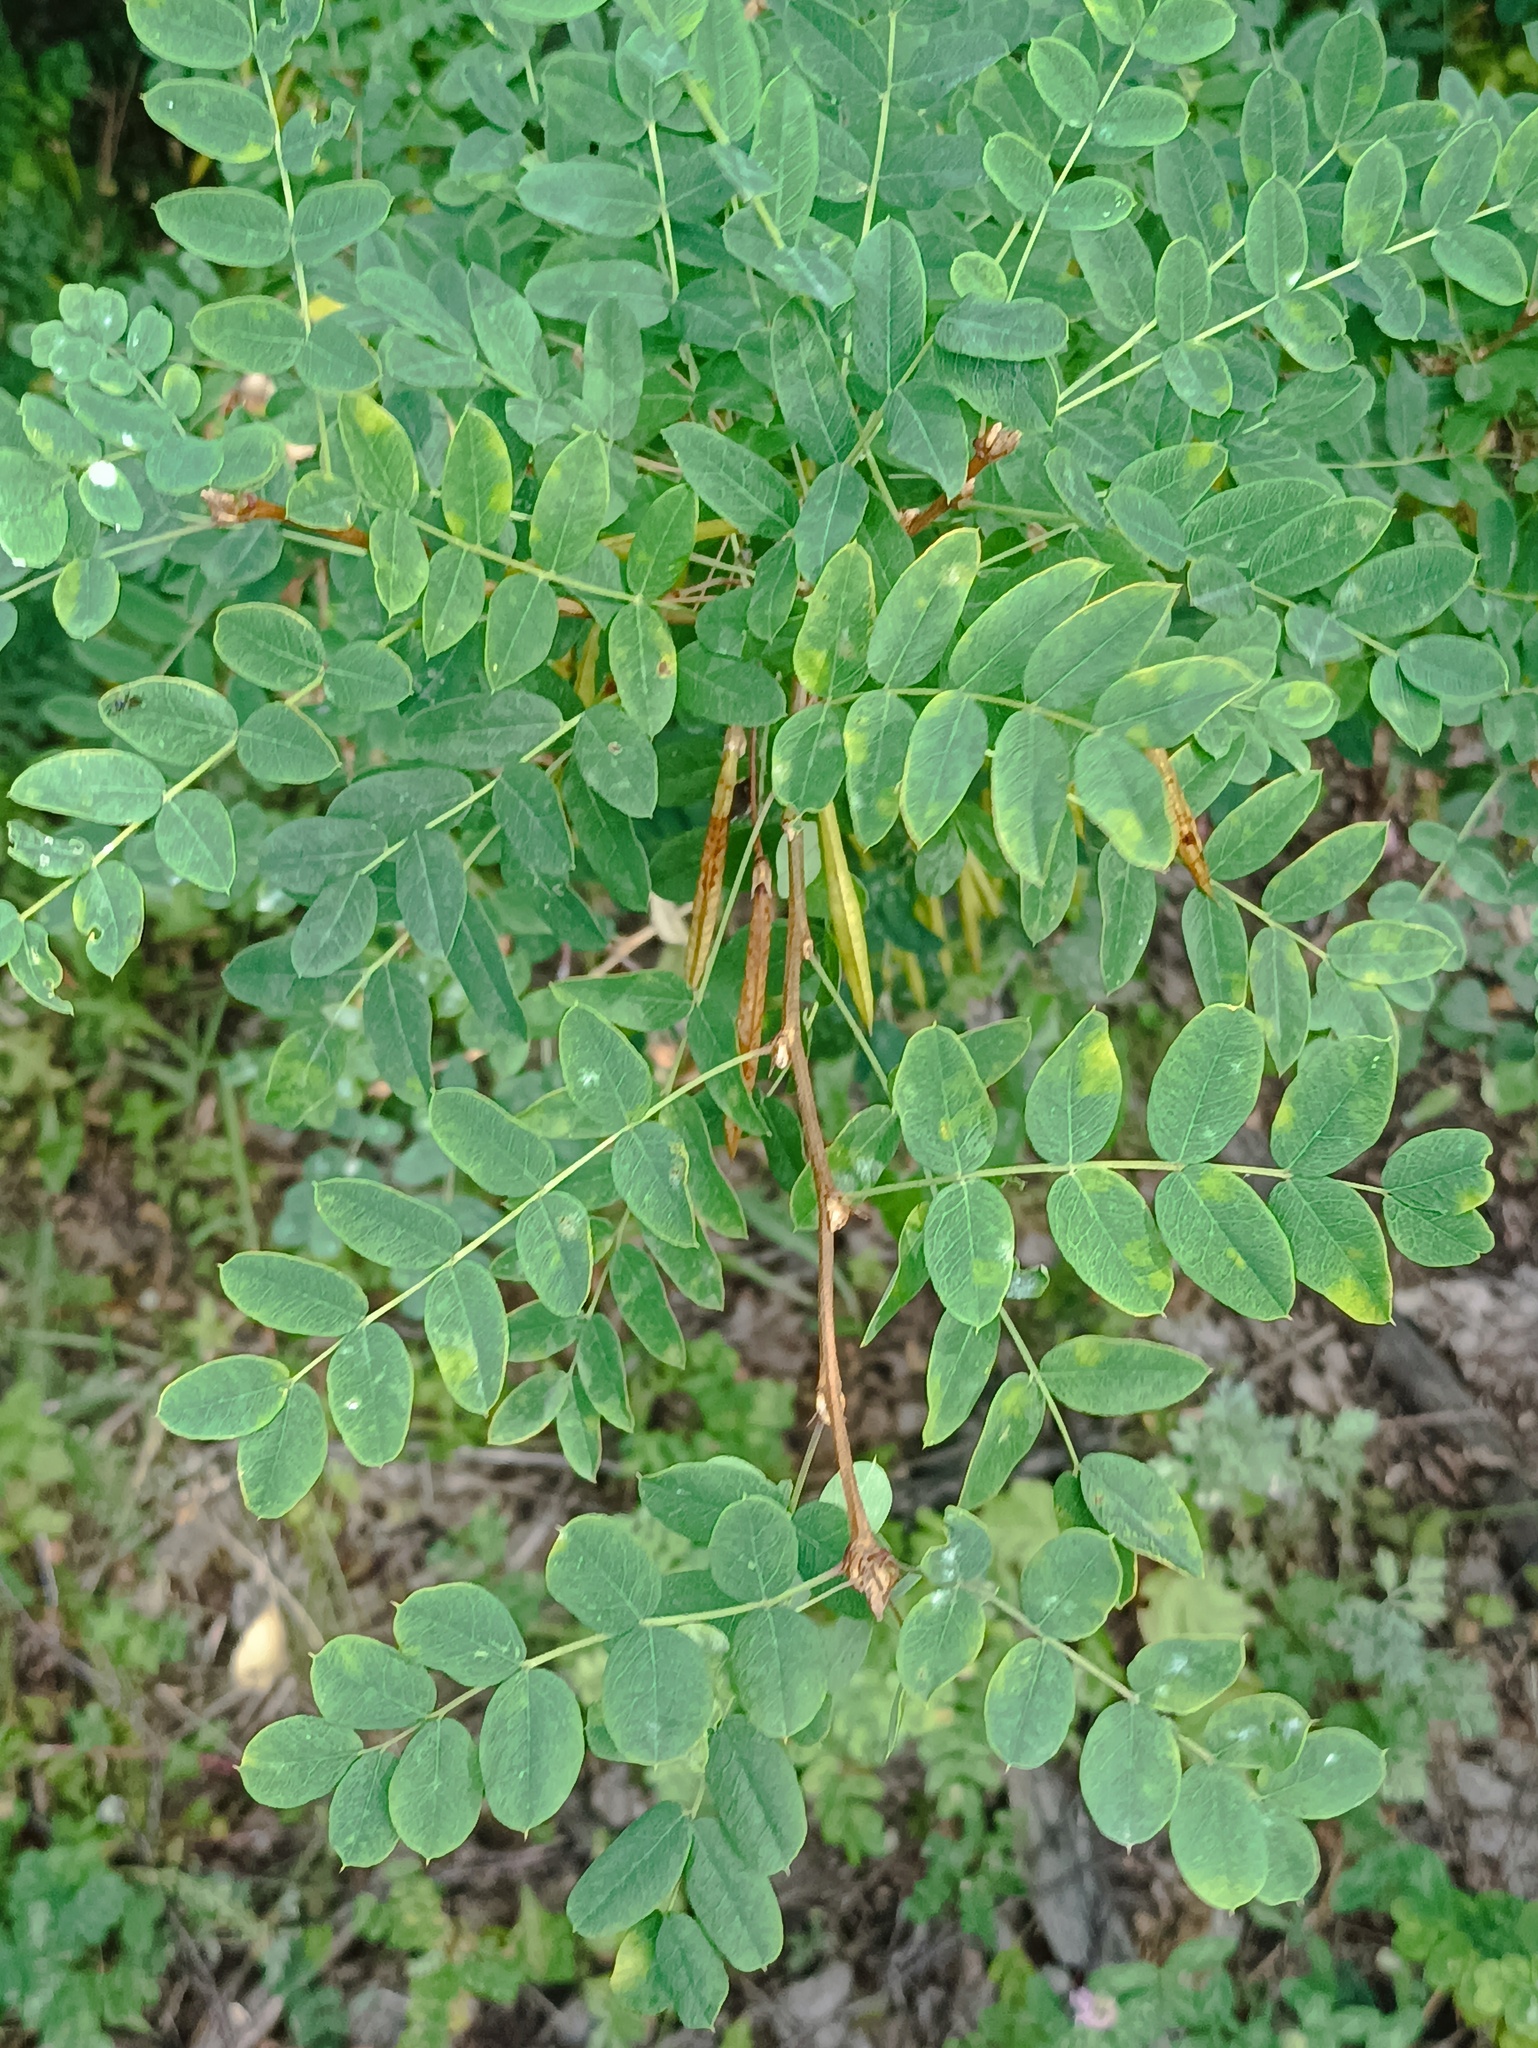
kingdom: Plantae
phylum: Tracheophyta
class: Magnoliopsida
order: Fabales
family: Fabaceae
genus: Caragana
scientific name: Caragana arborescens
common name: Siberian peashrub
